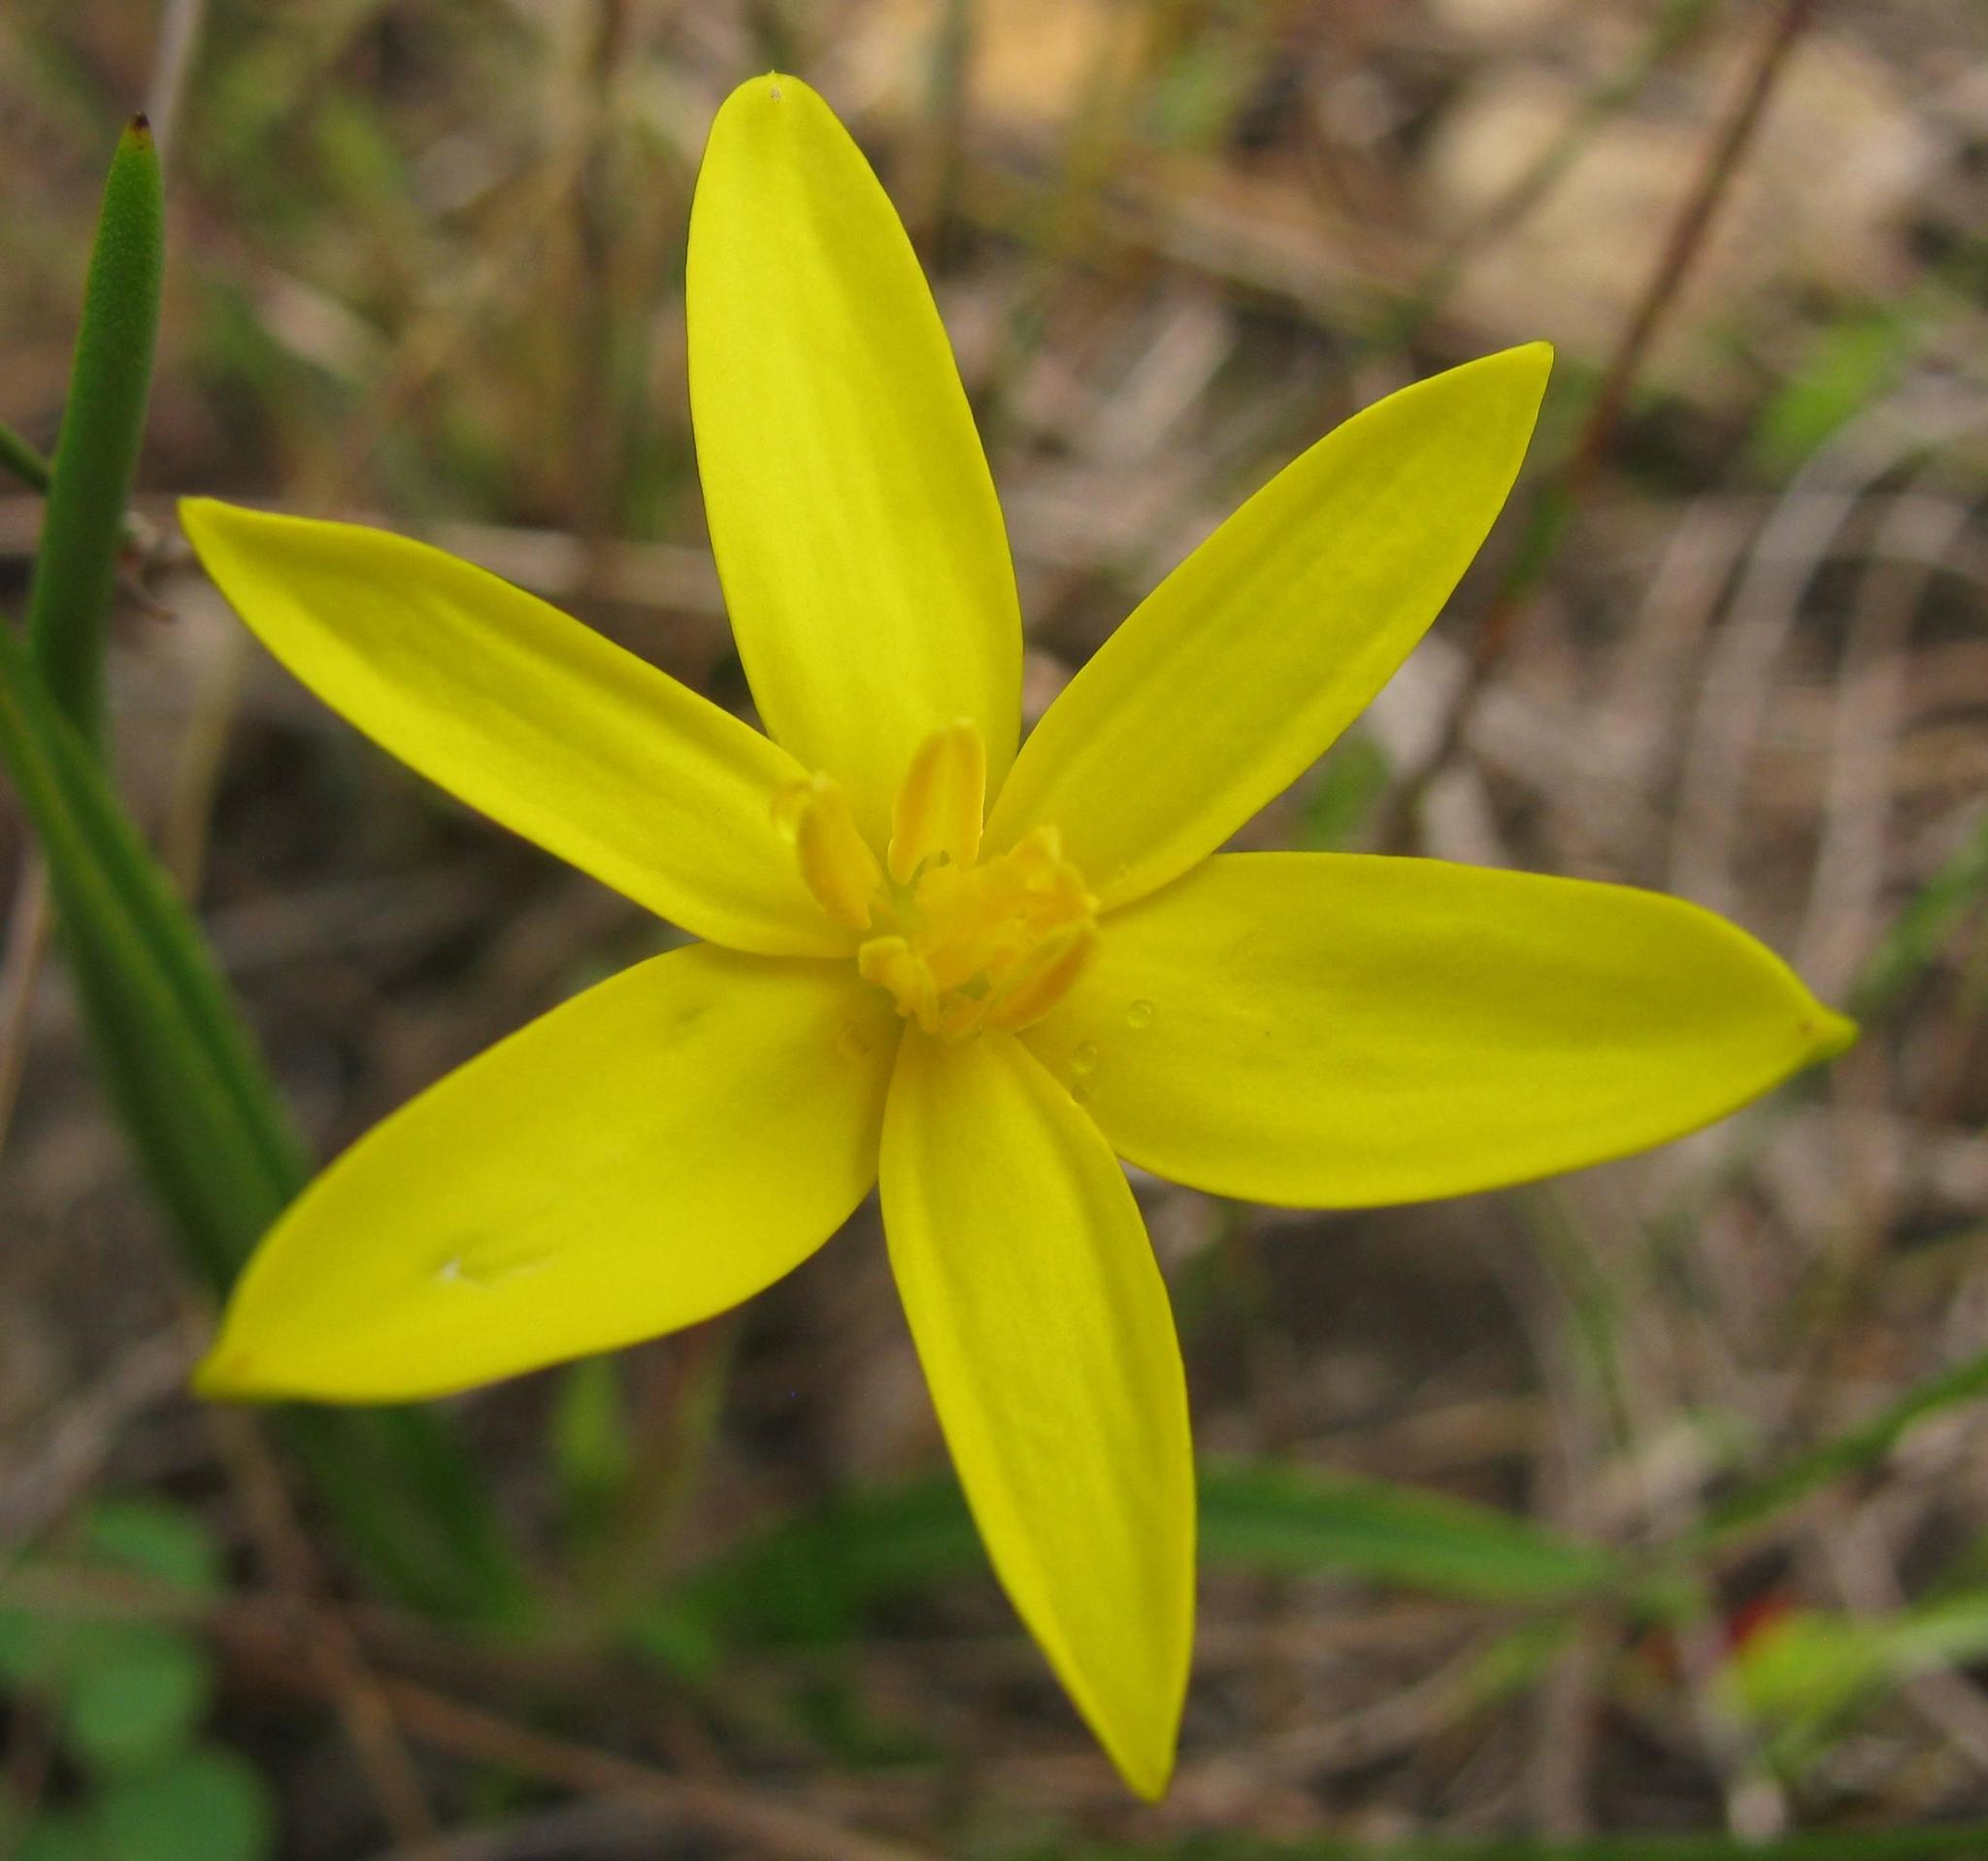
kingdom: Plantae
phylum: Tracheophyta
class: Liliopsida
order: Asparagales
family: Hypoxidaceae
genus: Pauridia
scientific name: Pauridia serrata
